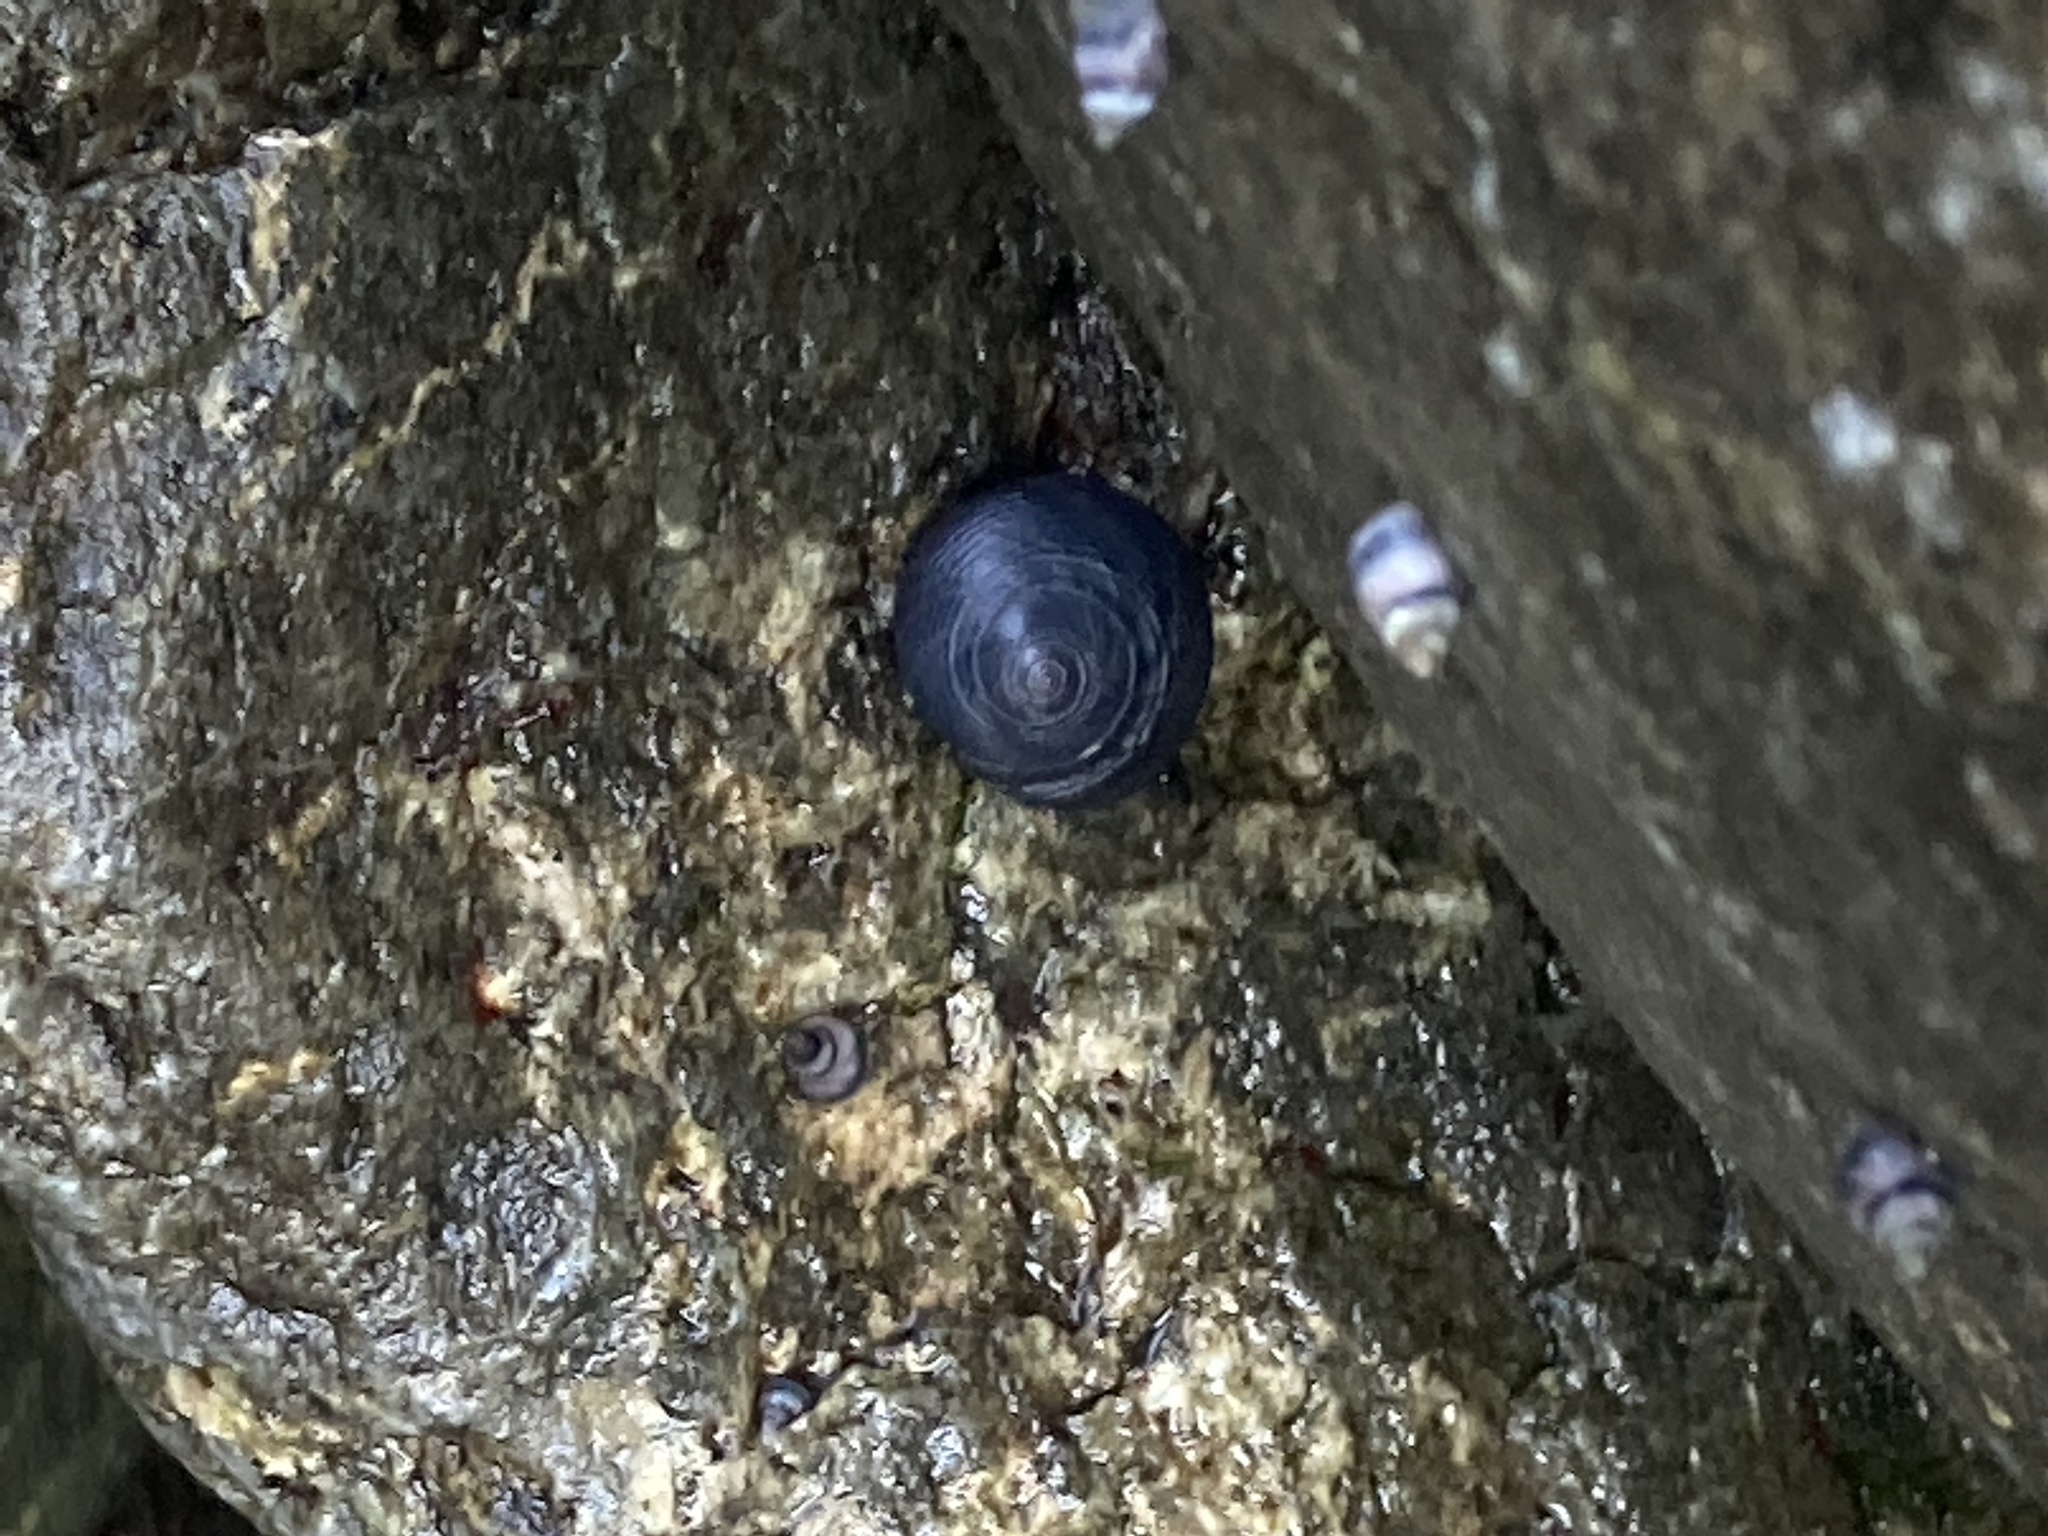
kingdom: Animalia
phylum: Mollusca
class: Gastropoda
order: Trochida
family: Trochidae
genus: Diloma
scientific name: Diloma nigerrimum
